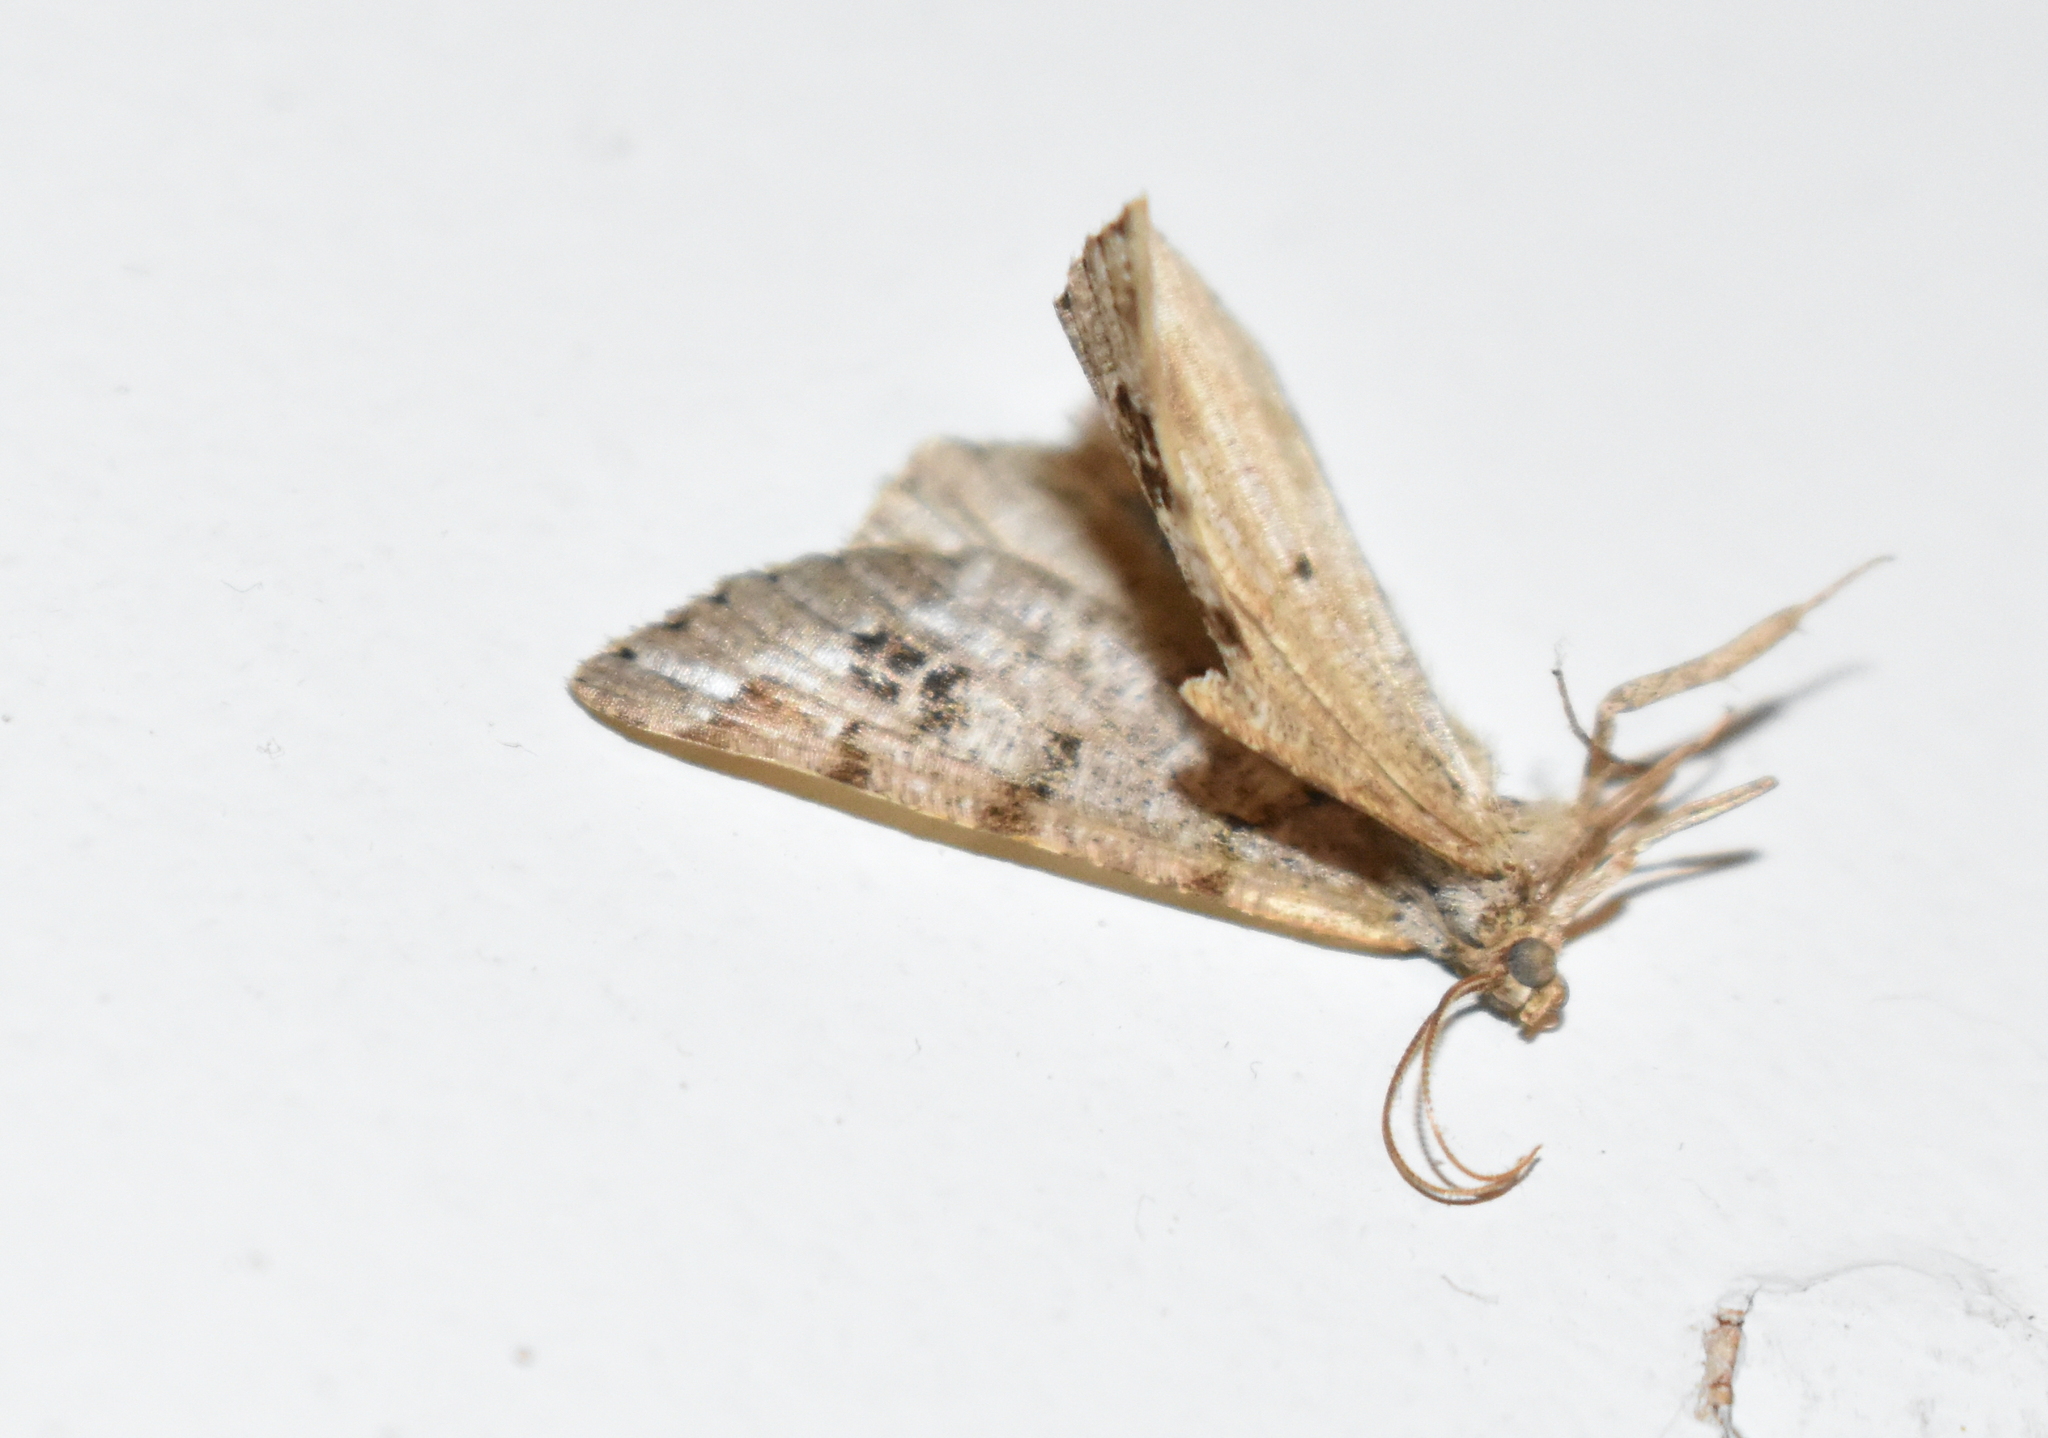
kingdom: Animalia
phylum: Arthropoda
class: Insecta
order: Lepidoptera
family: Geometridae
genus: Macaria
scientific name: Macaria signaria
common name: Dusky peacock
